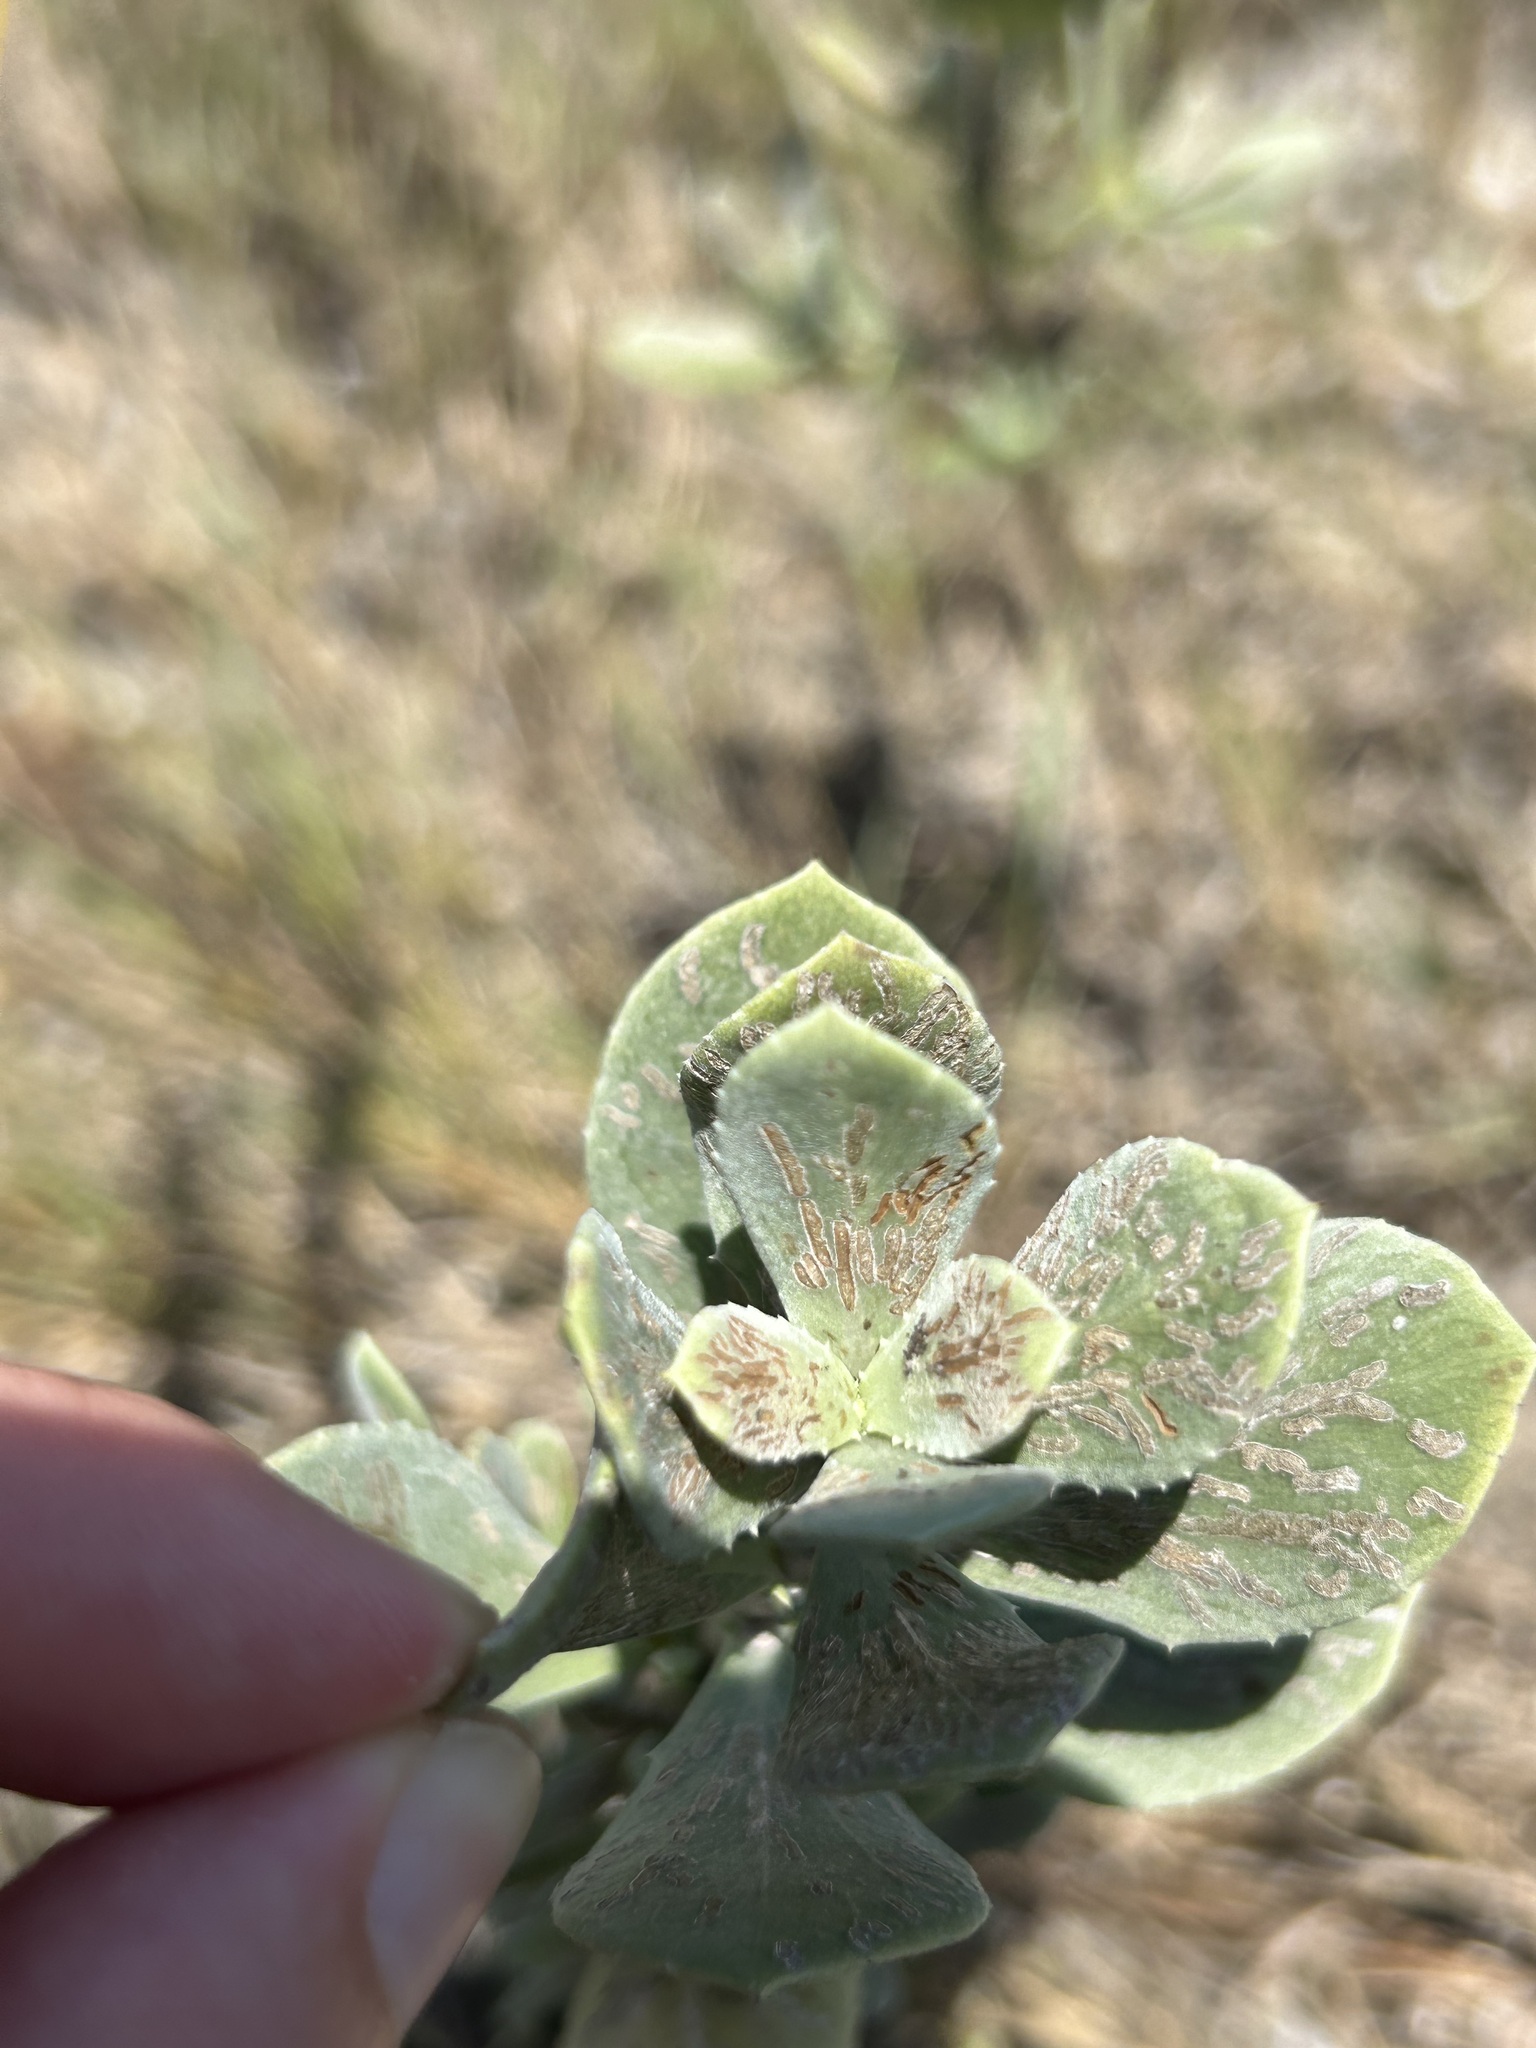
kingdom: Plantae
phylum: Tracheophyta
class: Magnoliopsida
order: Asterales
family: Asteraceae
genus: Borrichia
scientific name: Borrichia frutescens
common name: Sea oxeye
